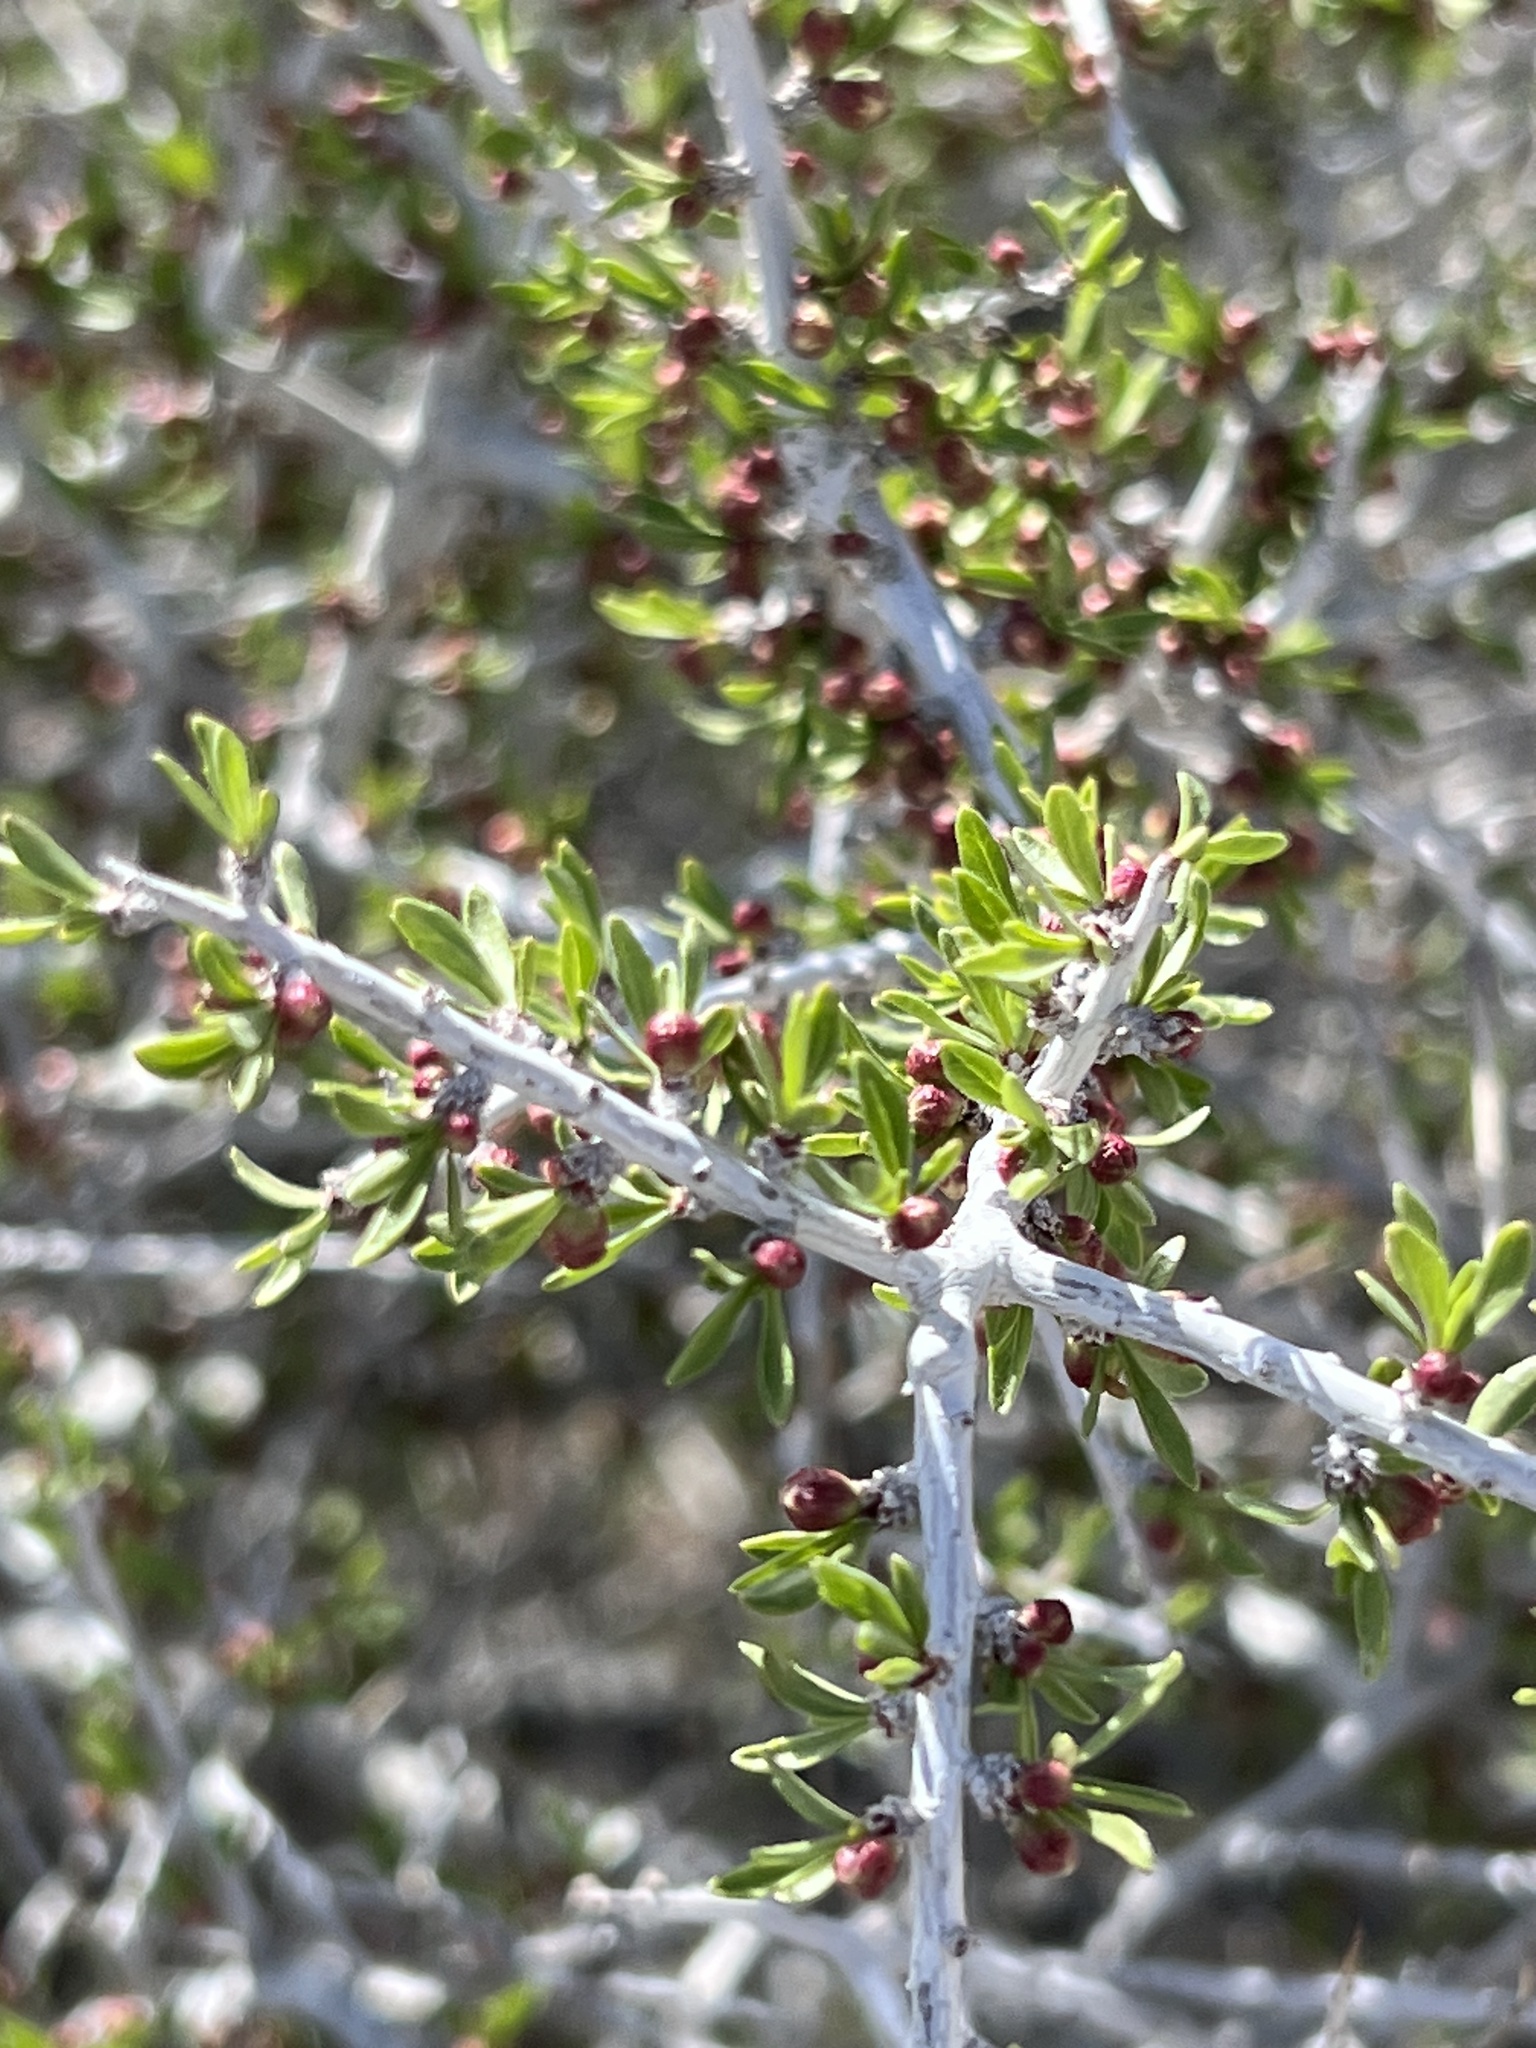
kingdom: Plantae
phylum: Tracheophyta
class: Magnoliopsida
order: Rosales
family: Rosaceae
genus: Prunus
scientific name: Prunus fasciculata
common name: Desert almond
